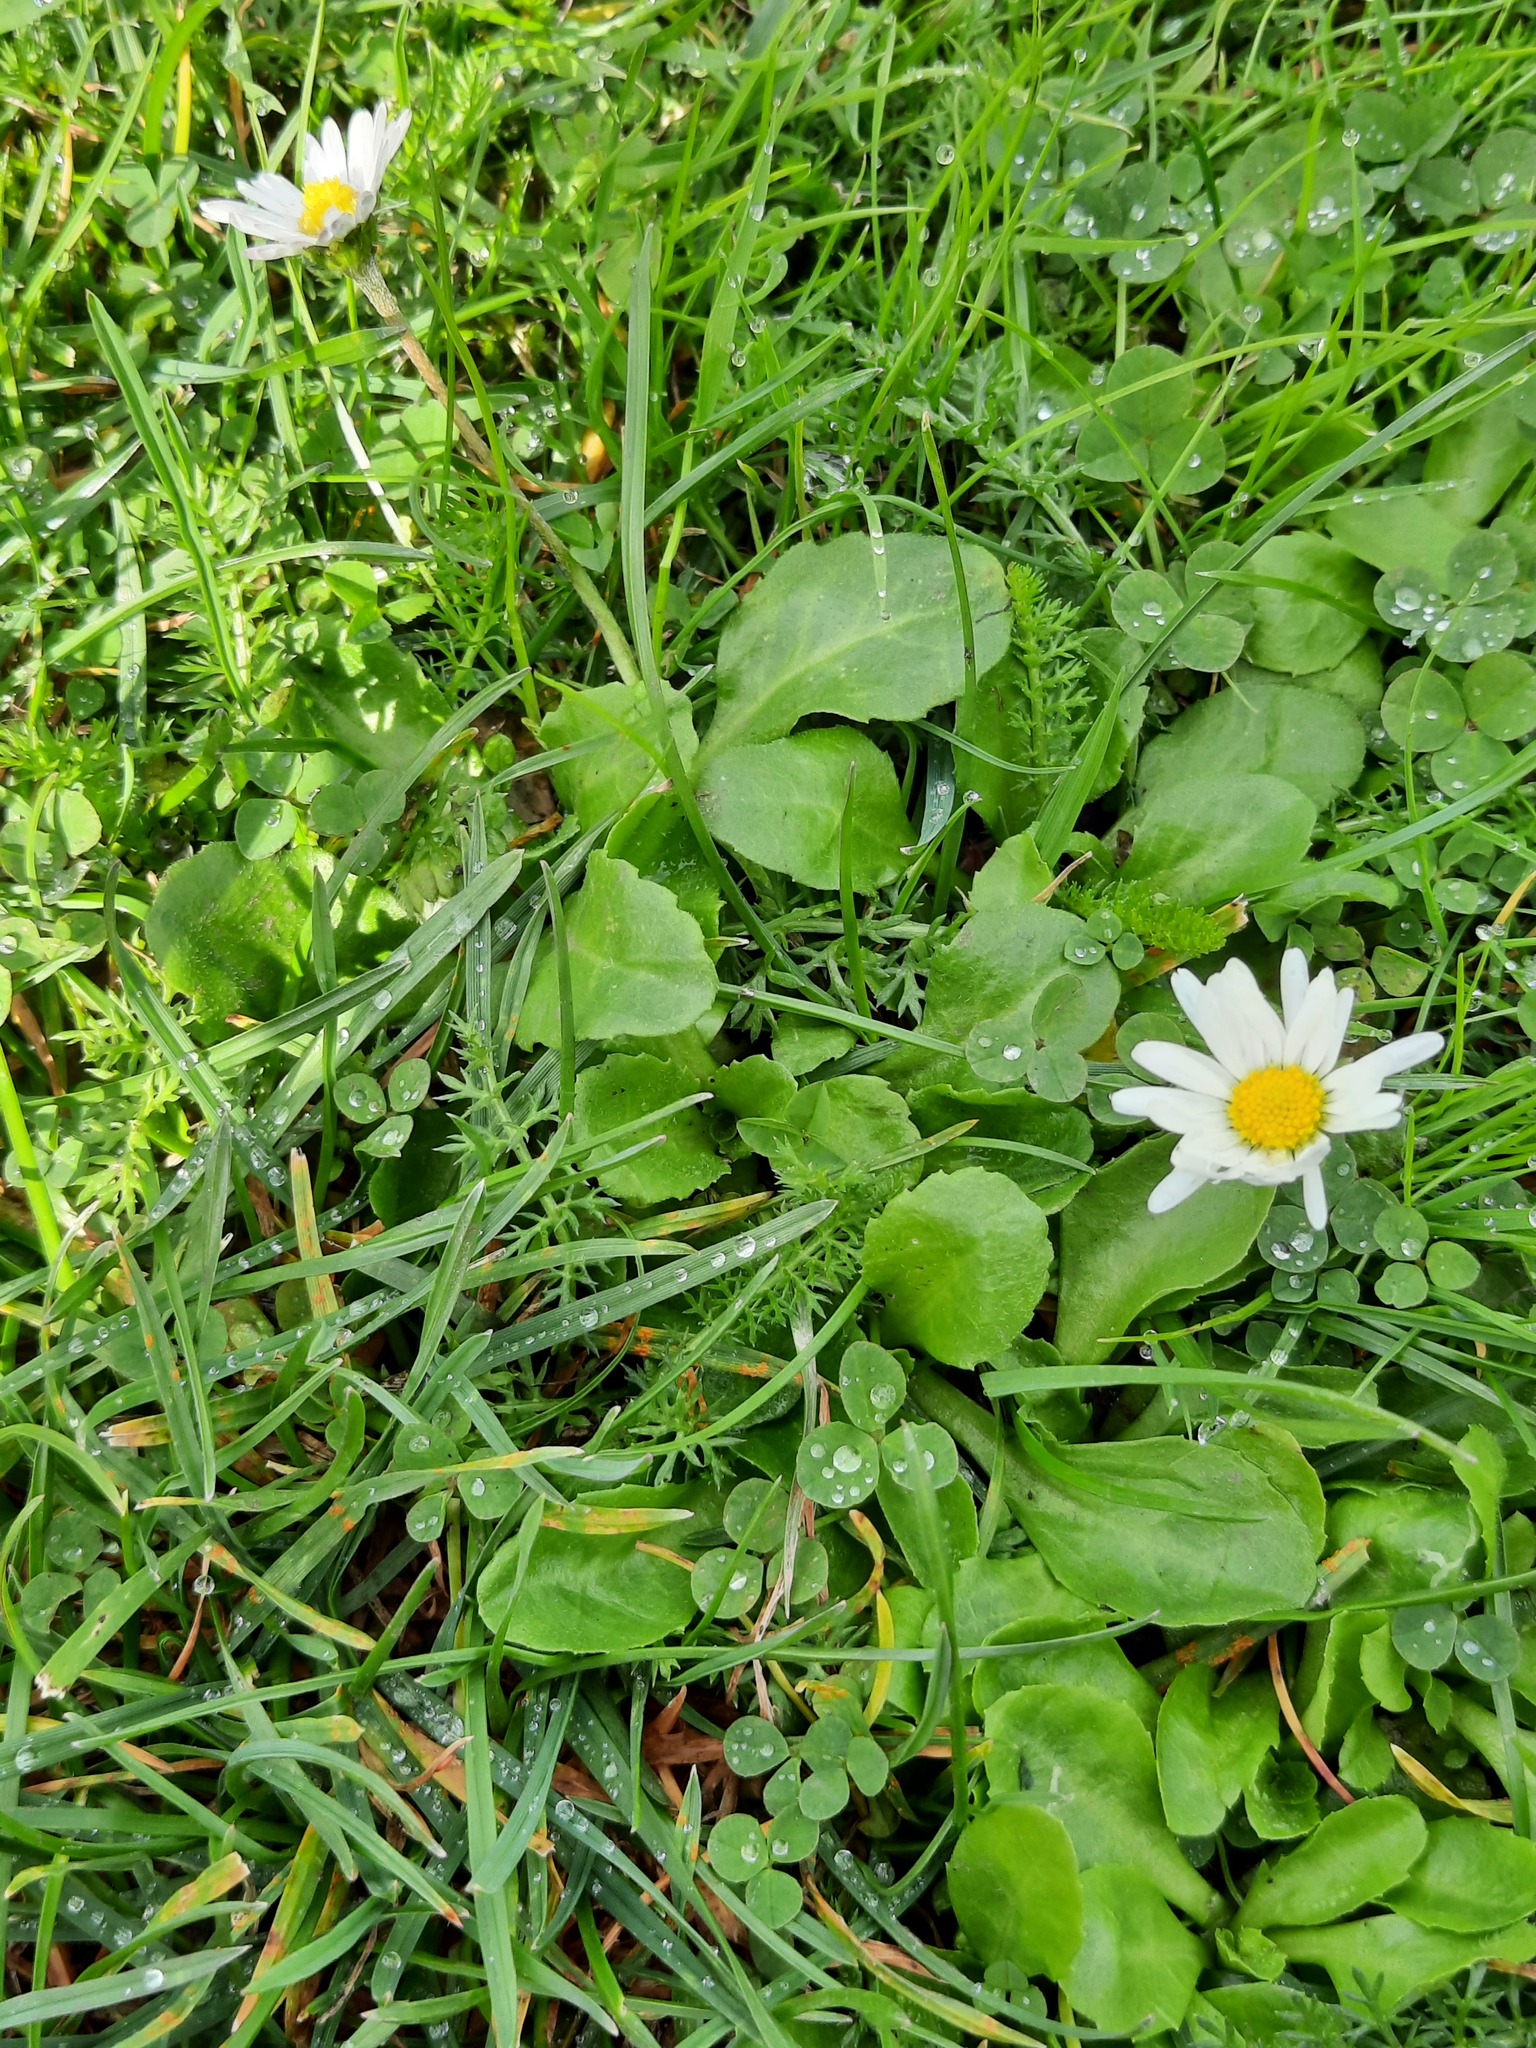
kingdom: Plantae
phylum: Tracheophyta
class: Magnoliopsida
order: Asterales
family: Asteraceae
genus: Bellis
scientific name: Bellis perennis
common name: Lawndaisy
